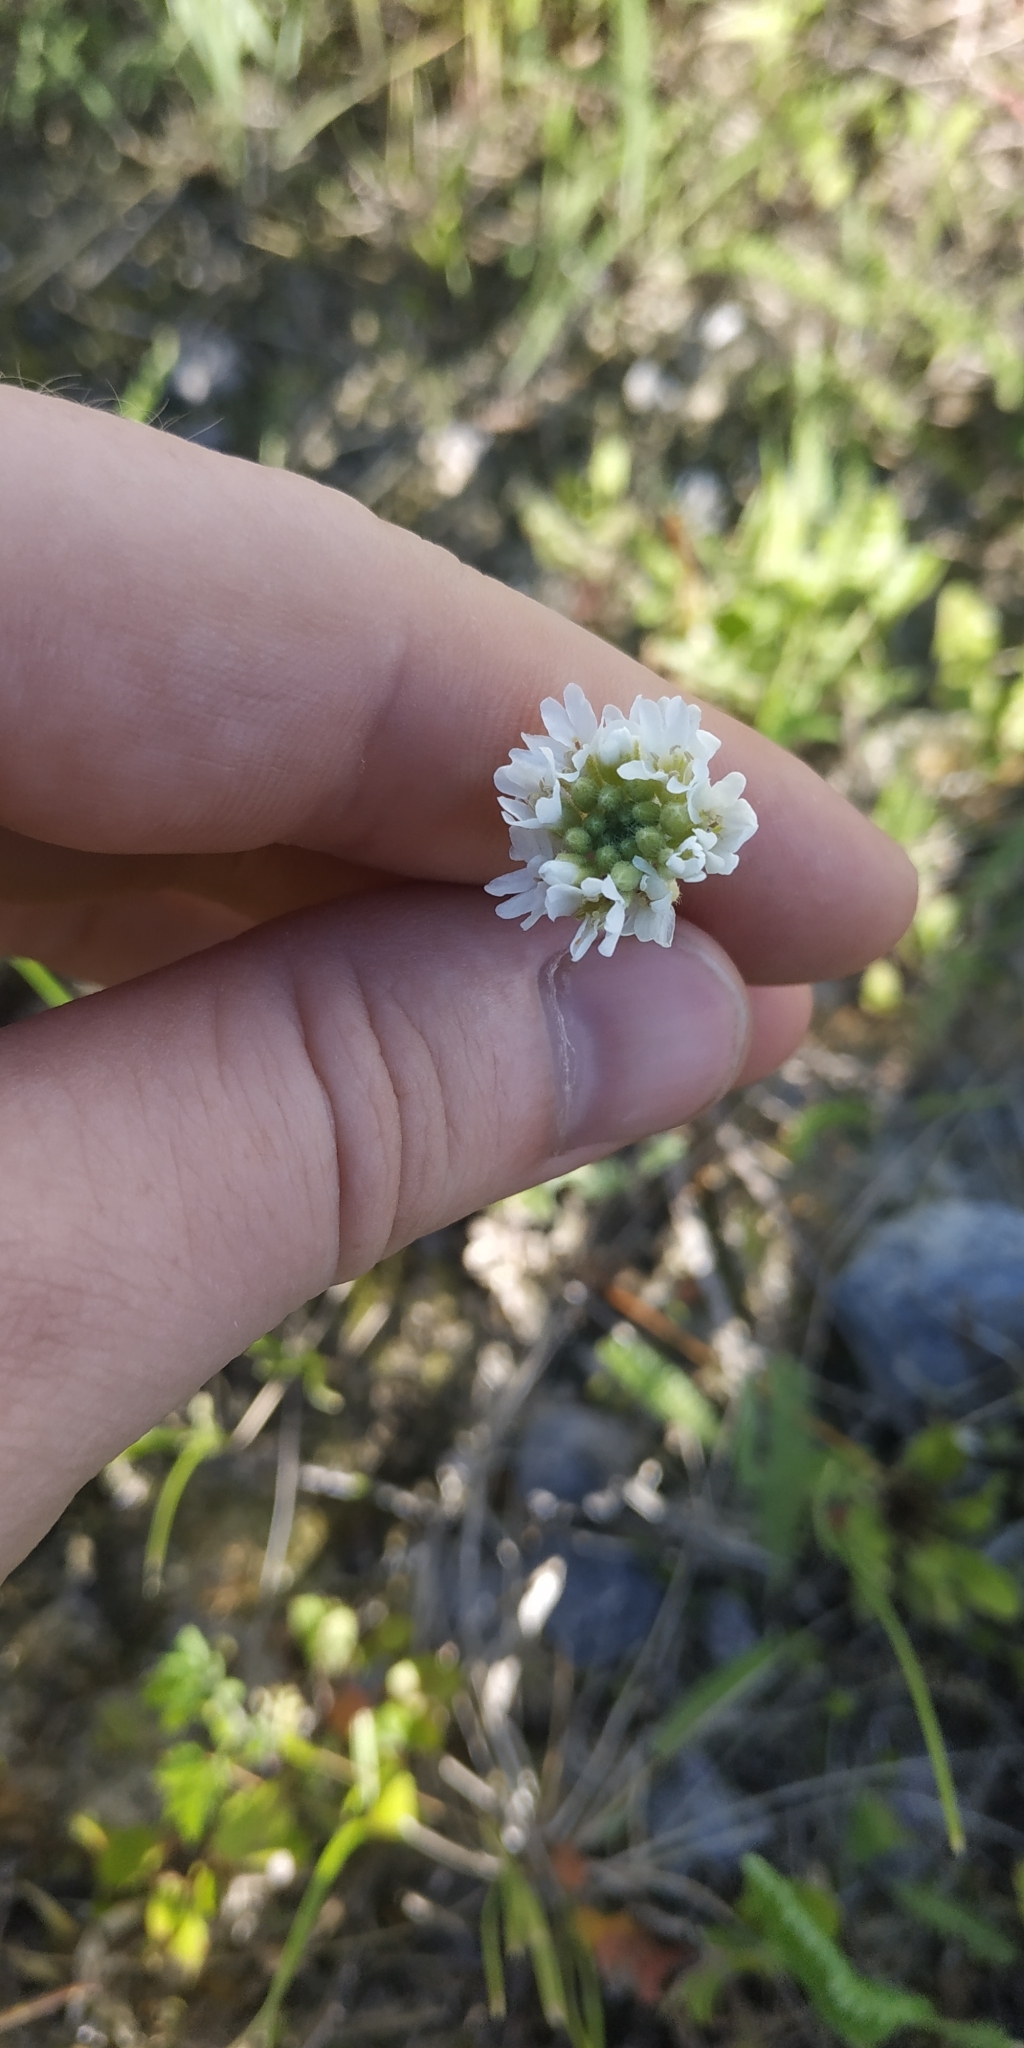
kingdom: Plantae
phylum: Tracheophyta
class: Magnoliopsida
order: Brassicales
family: Brassicaceae
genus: Berteroa
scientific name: Berteroa incana
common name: Hoary alison
